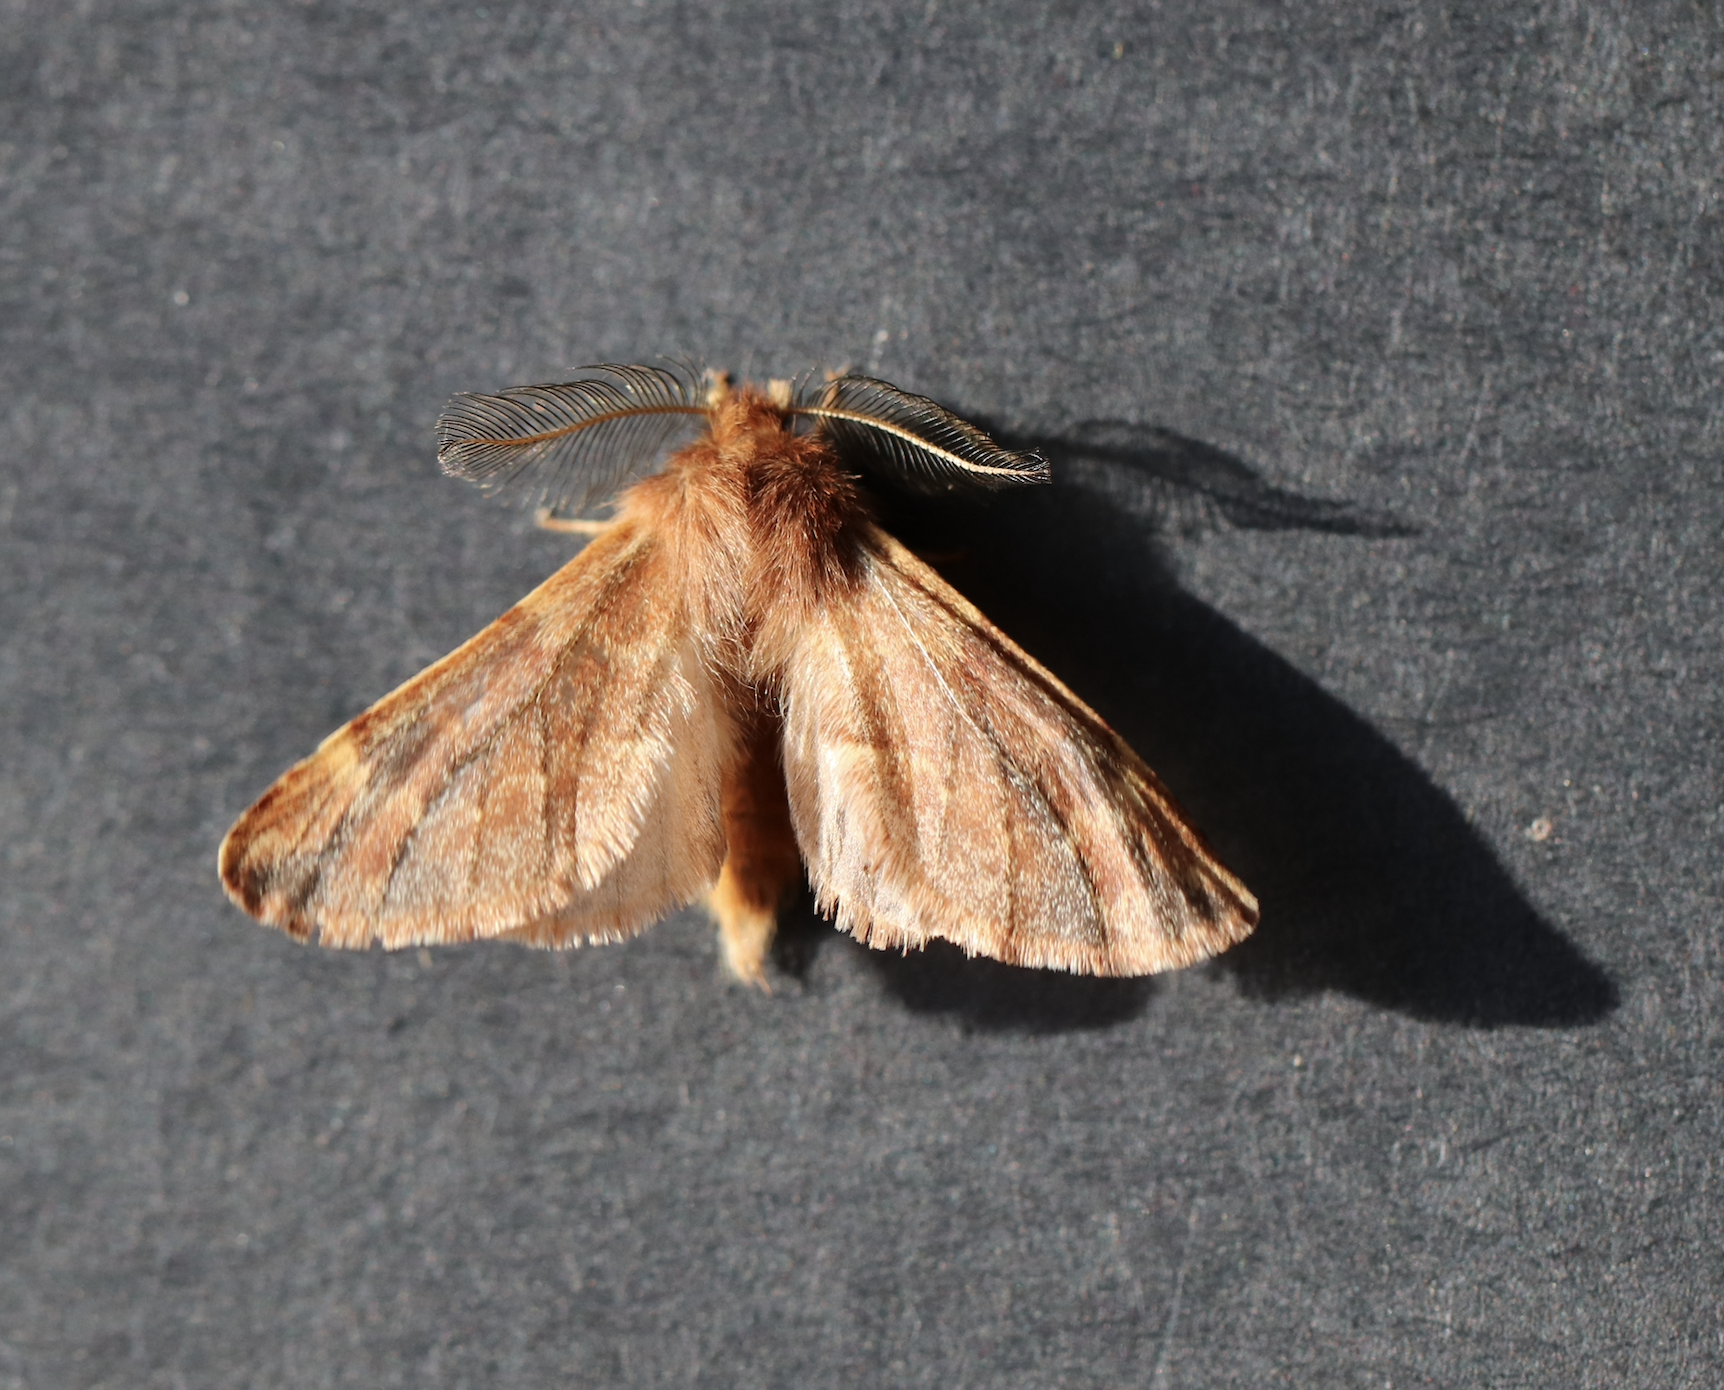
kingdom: Animalia
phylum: Arthropoda
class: Insecta
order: Lepidoptera
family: Notodontidae
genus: Ptilophora
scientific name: Ptilophora plumigera
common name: Plumed prominent
